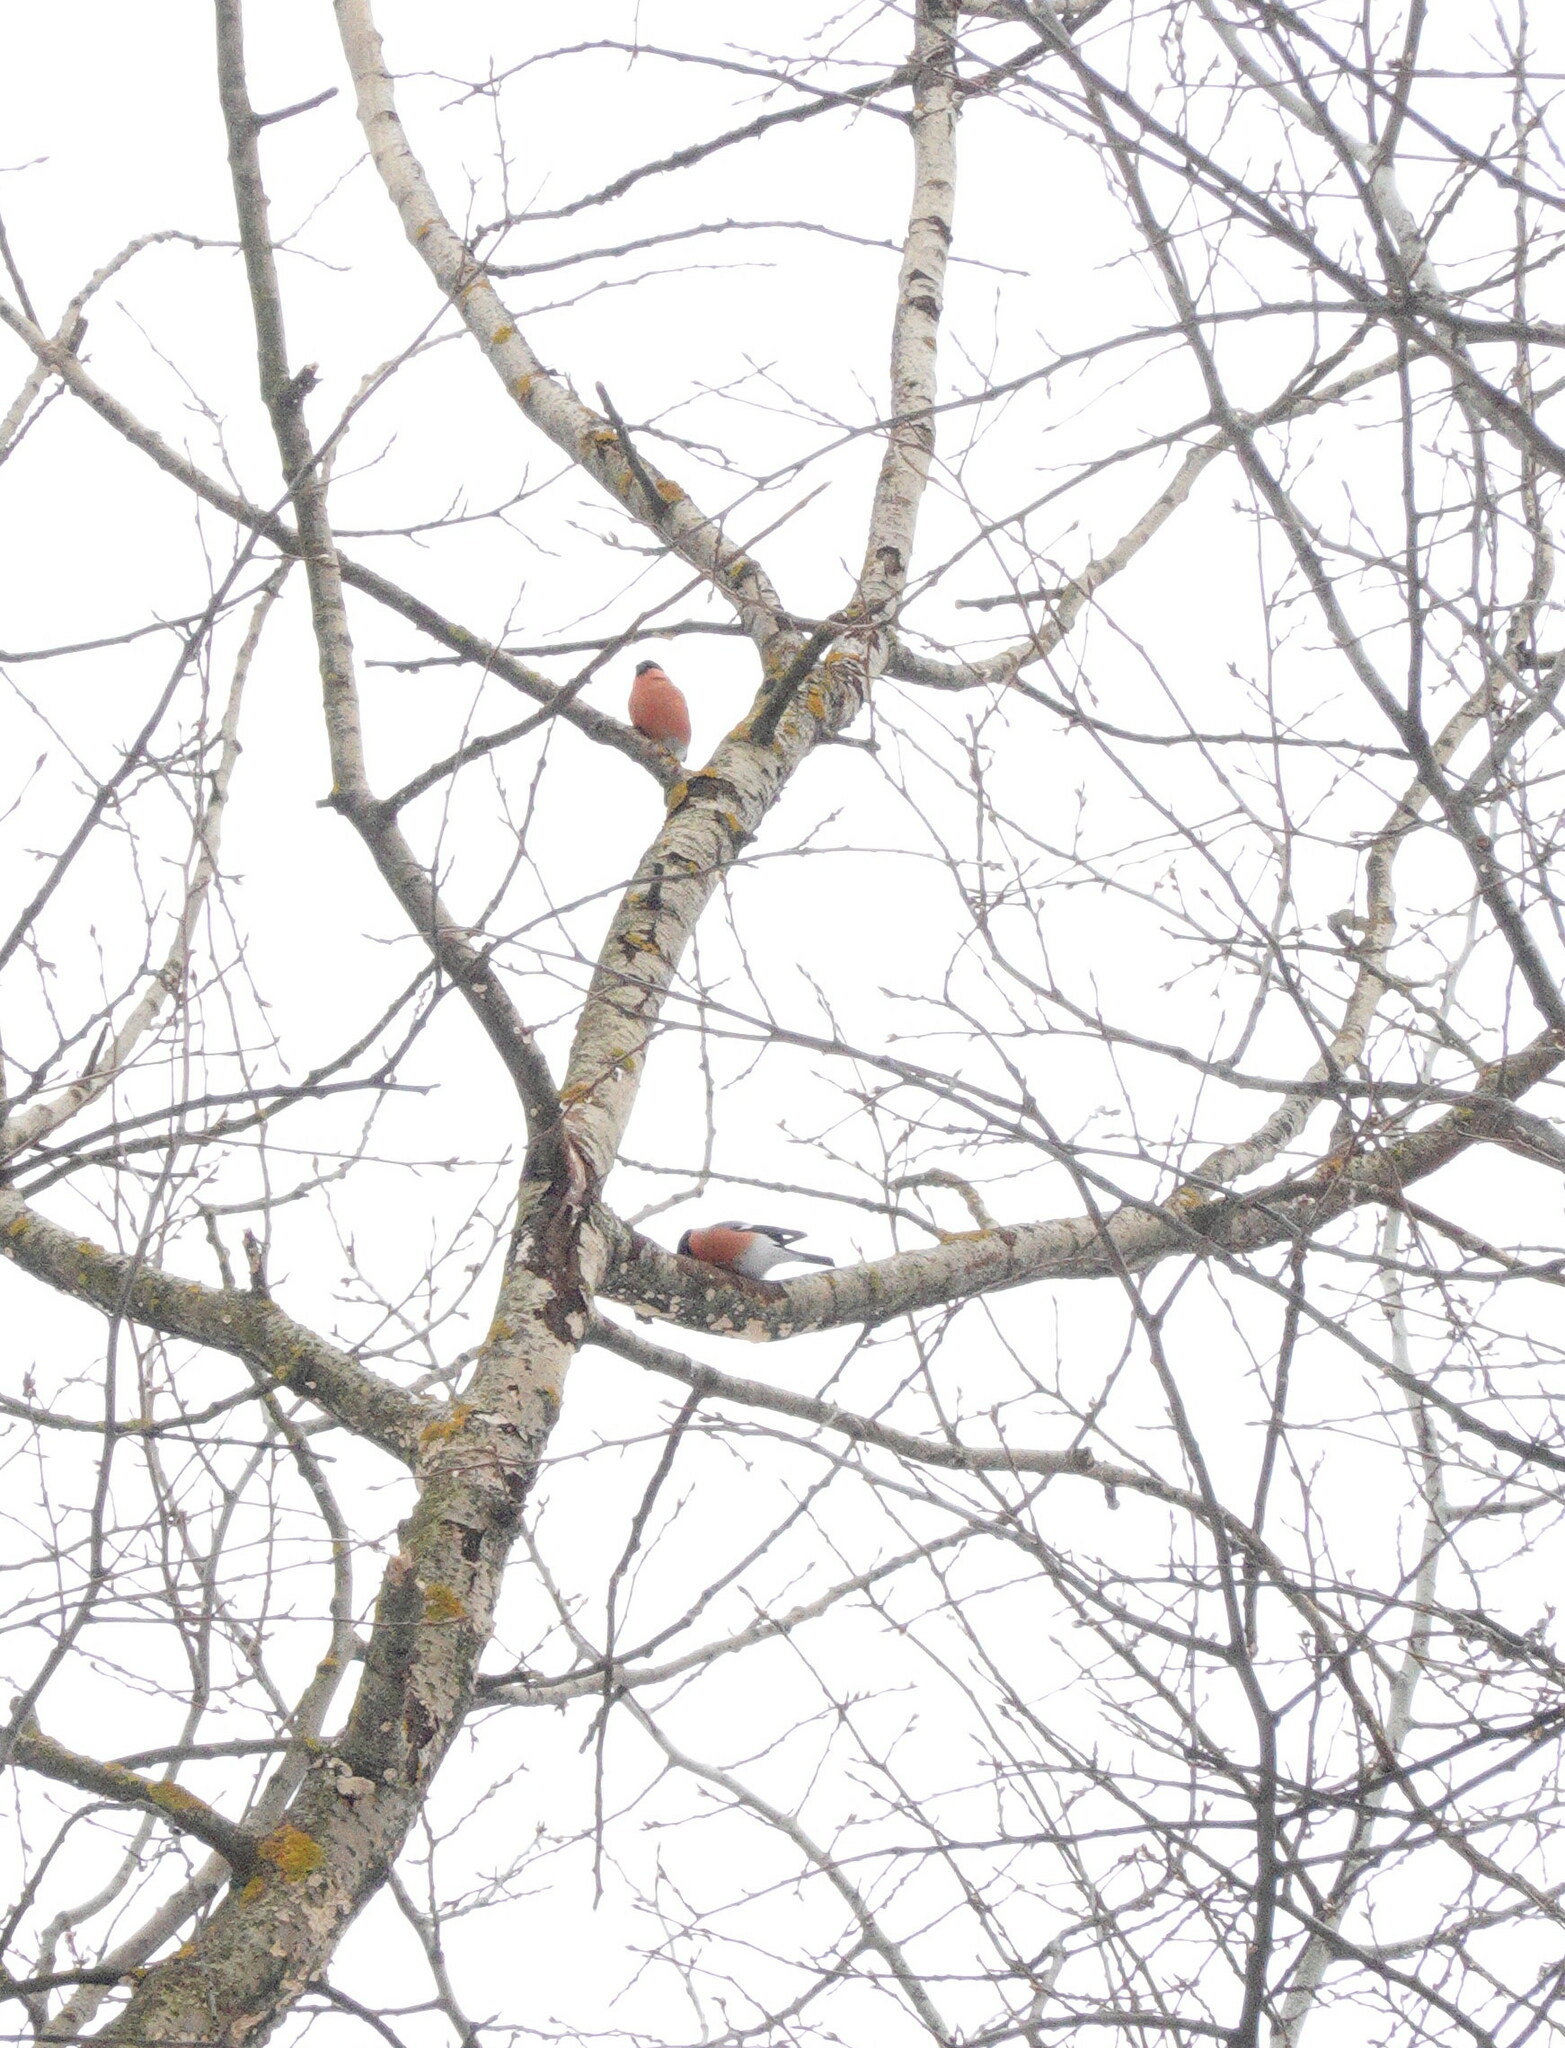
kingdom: Animalia
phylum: Chordata
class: Aves
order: Passeriformes
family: Fringillidae
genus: Pyrrhula
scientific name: Pyrrhula pyrrhula
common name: Eurasian bullfinch
